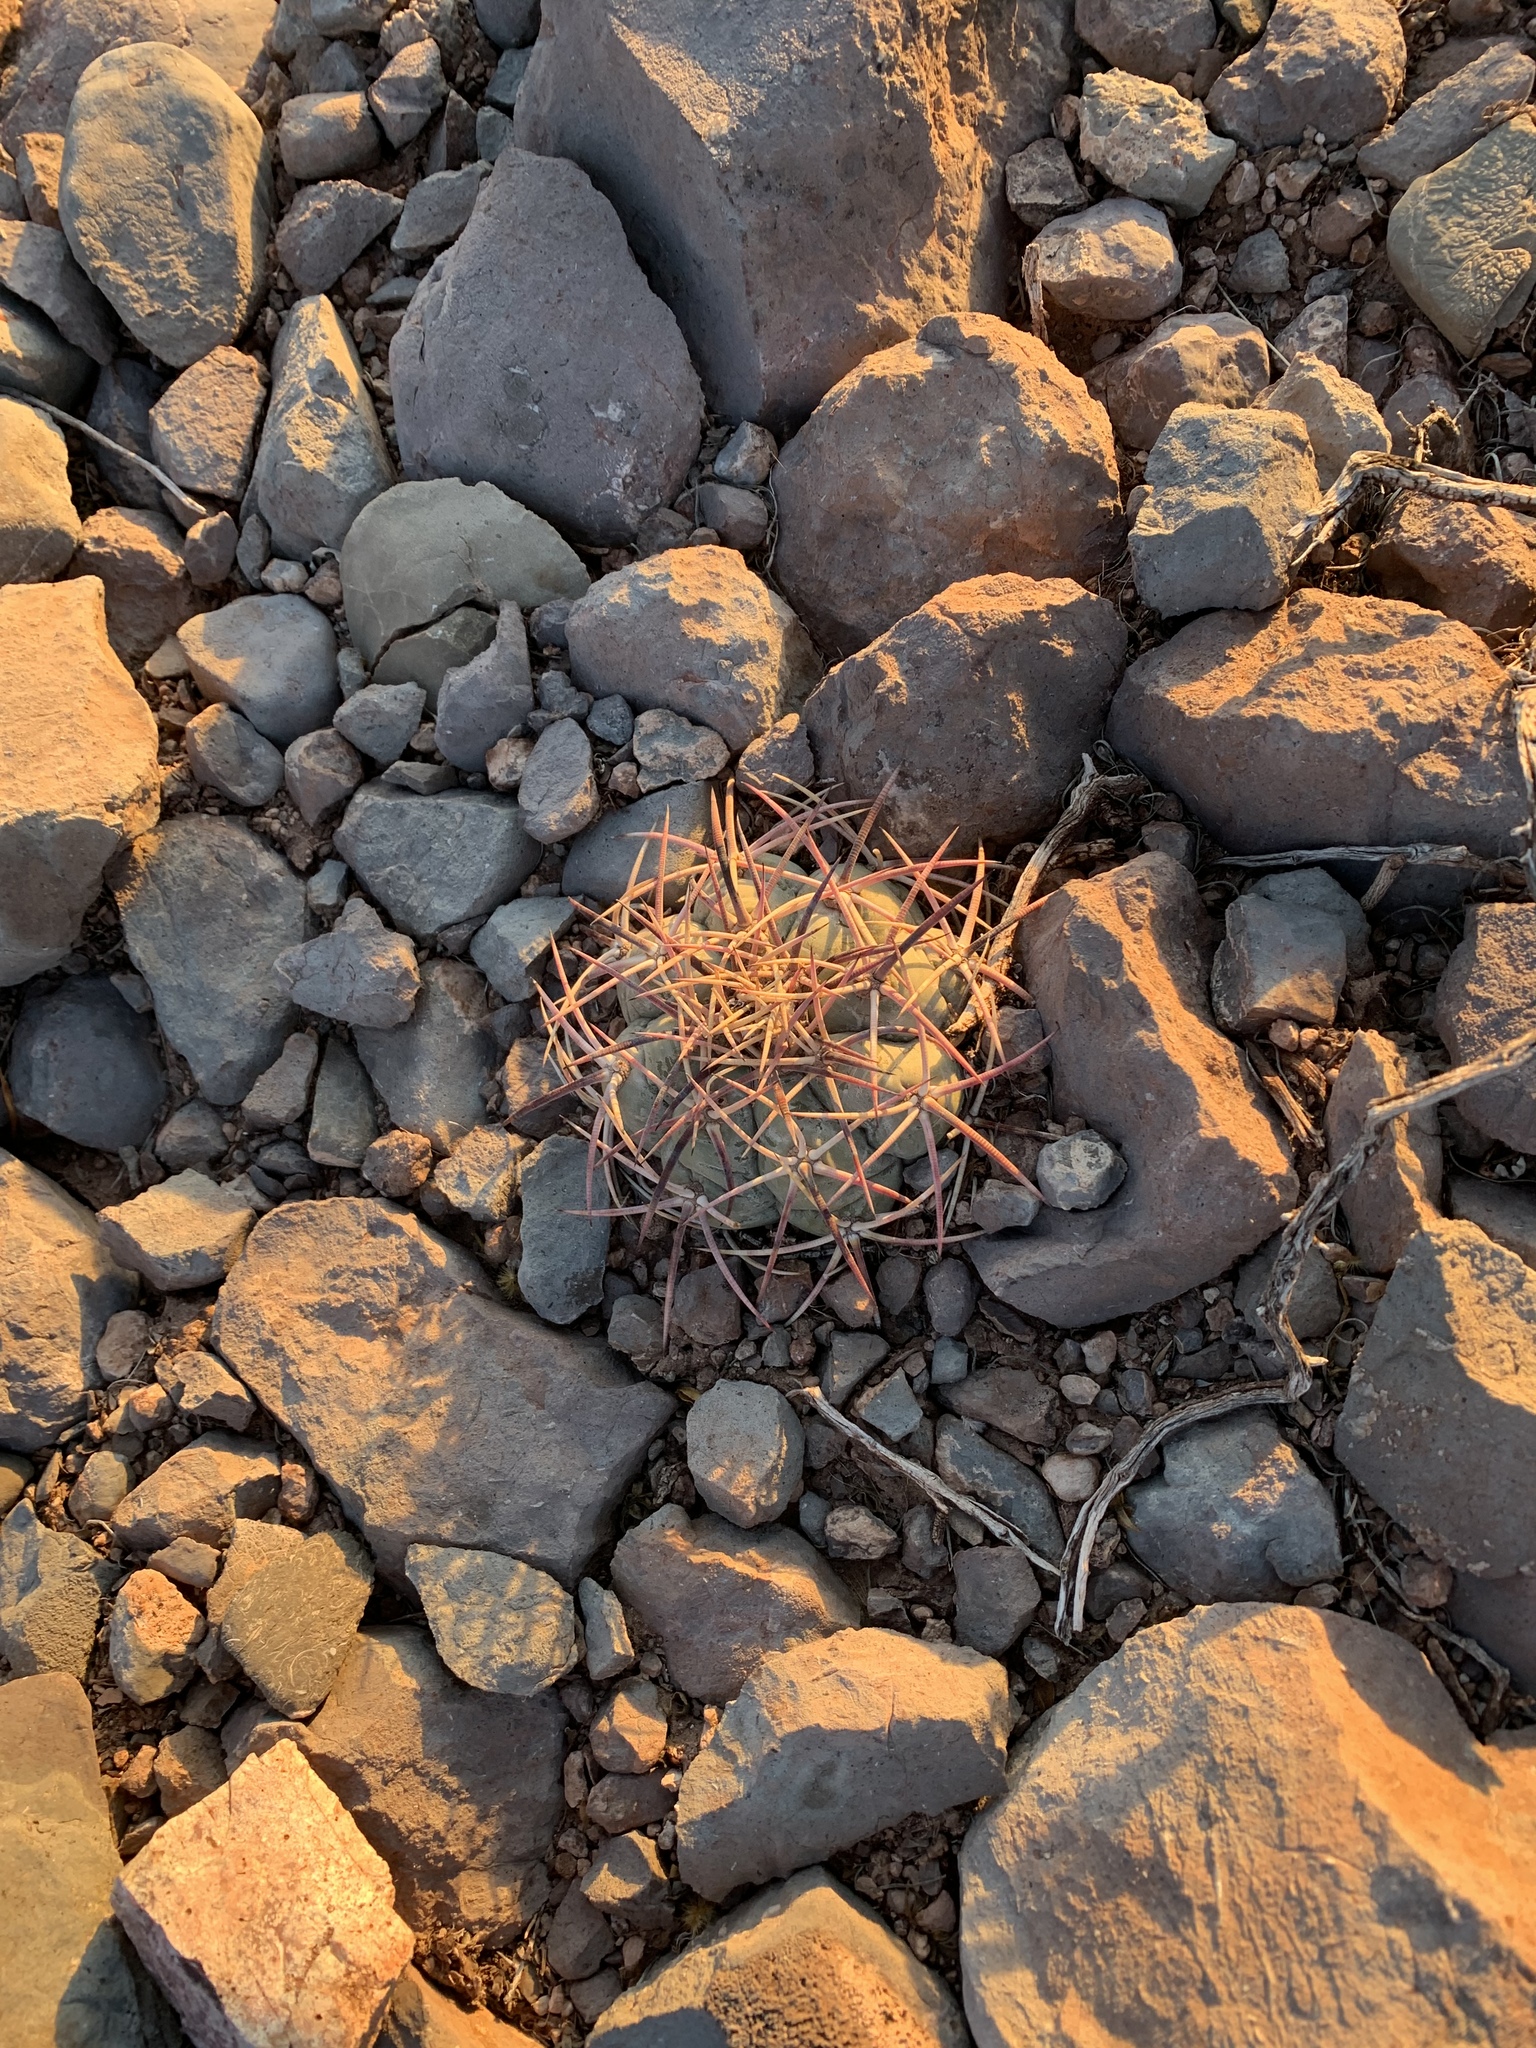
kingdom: Plantae
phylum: Tracheophyta
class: Magnoliopsida
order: Caryophyllales
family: Cactaceae
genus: Echinocactus
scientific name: Echinocactus horizonthalonius
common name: Devilshead
